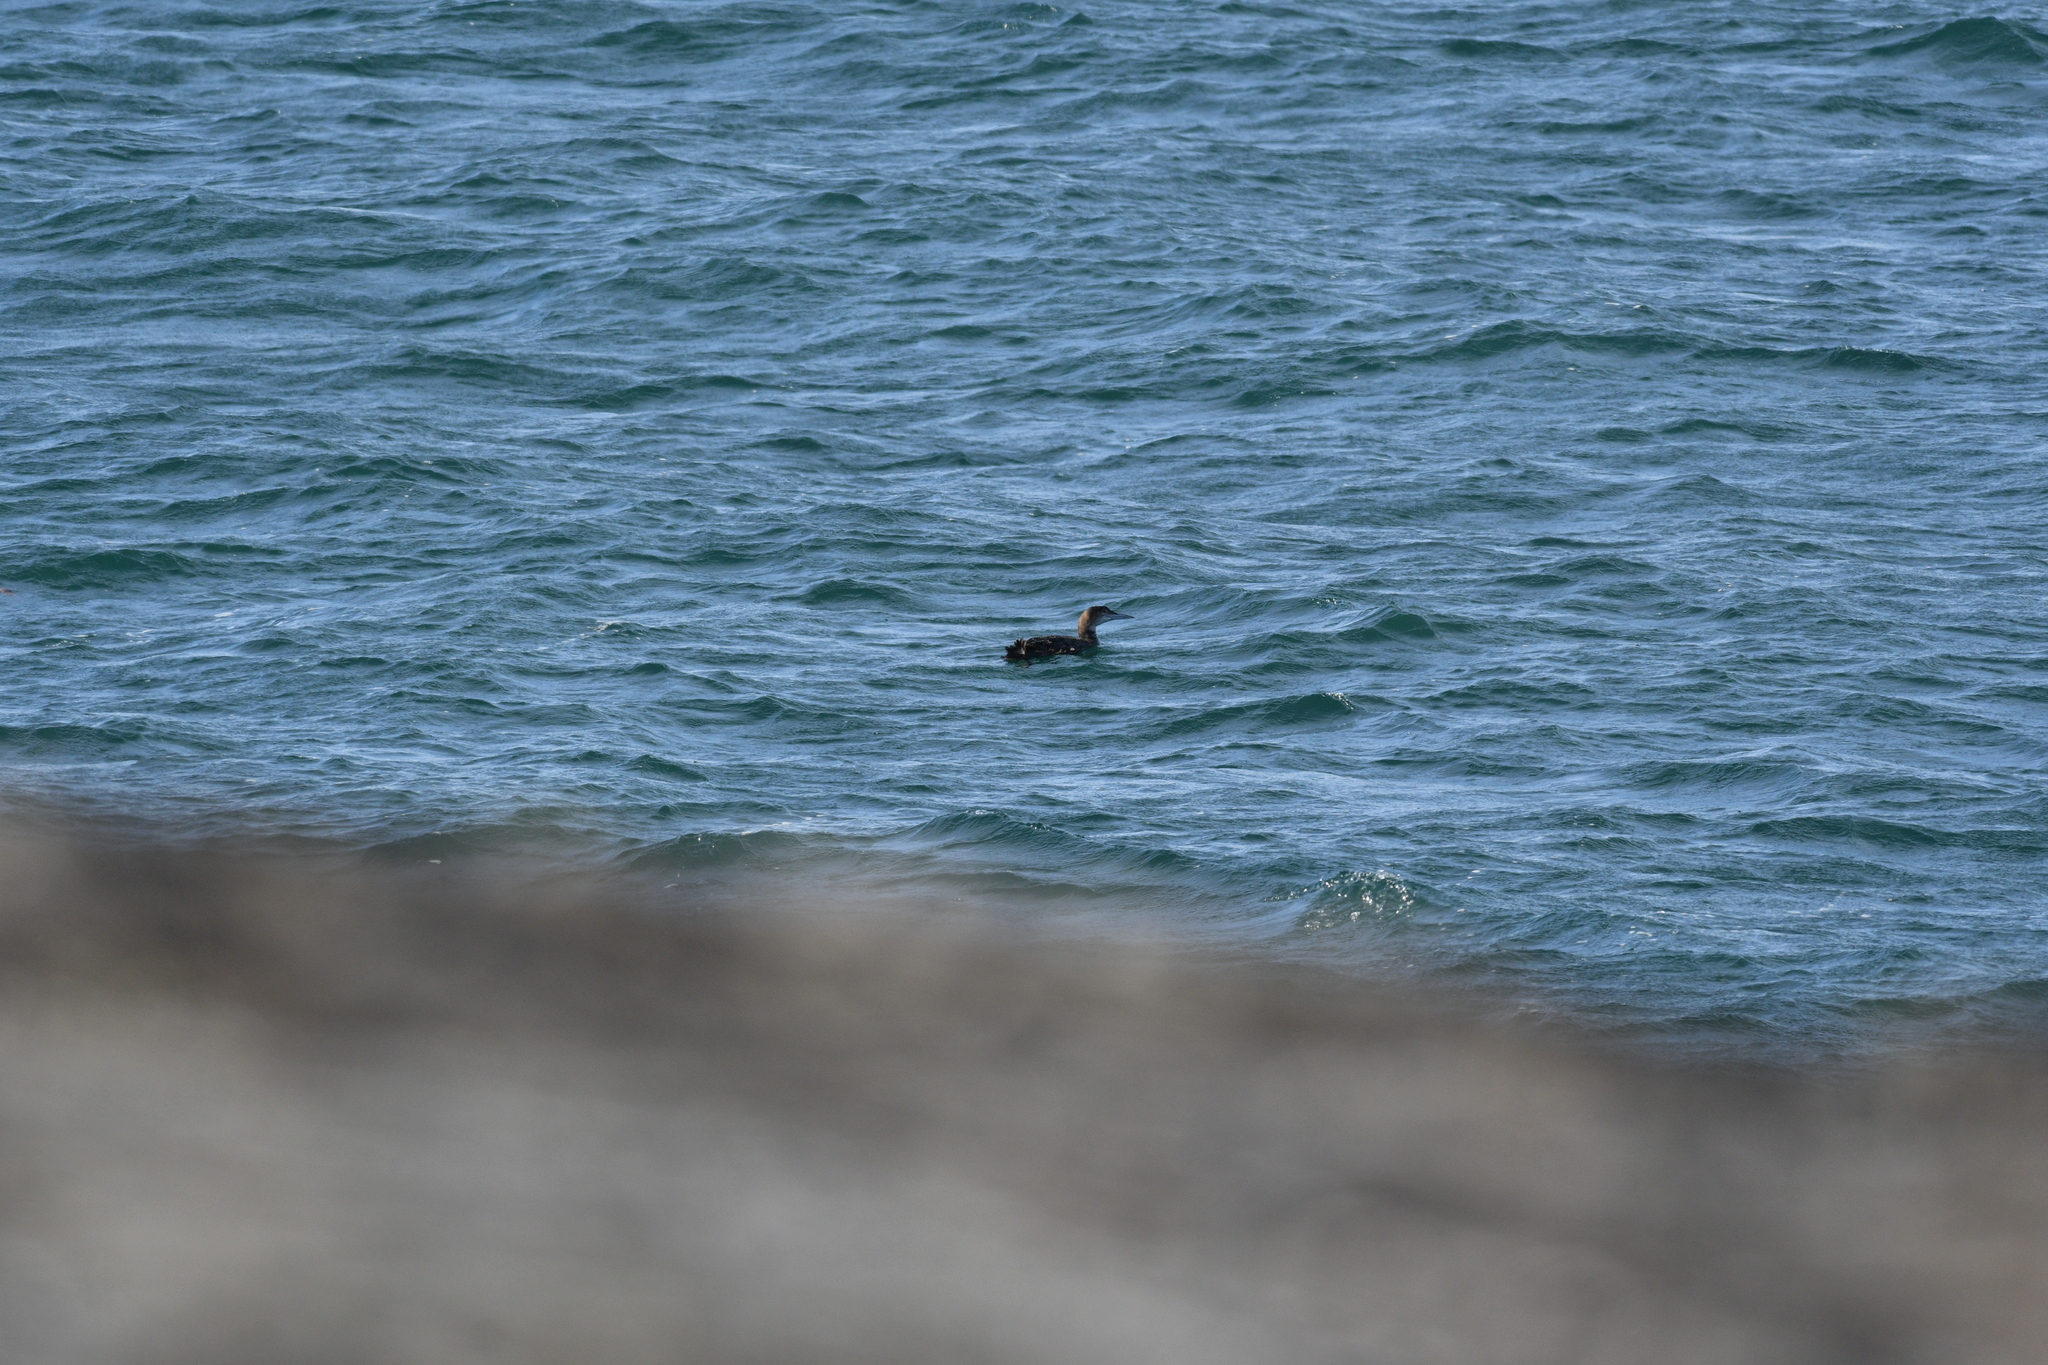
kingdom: Animalia
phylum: Chordata
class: Aves
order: Gaviiformes
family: Gaviidae
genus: Gavia
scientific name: Gavia immer
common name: Common loon
